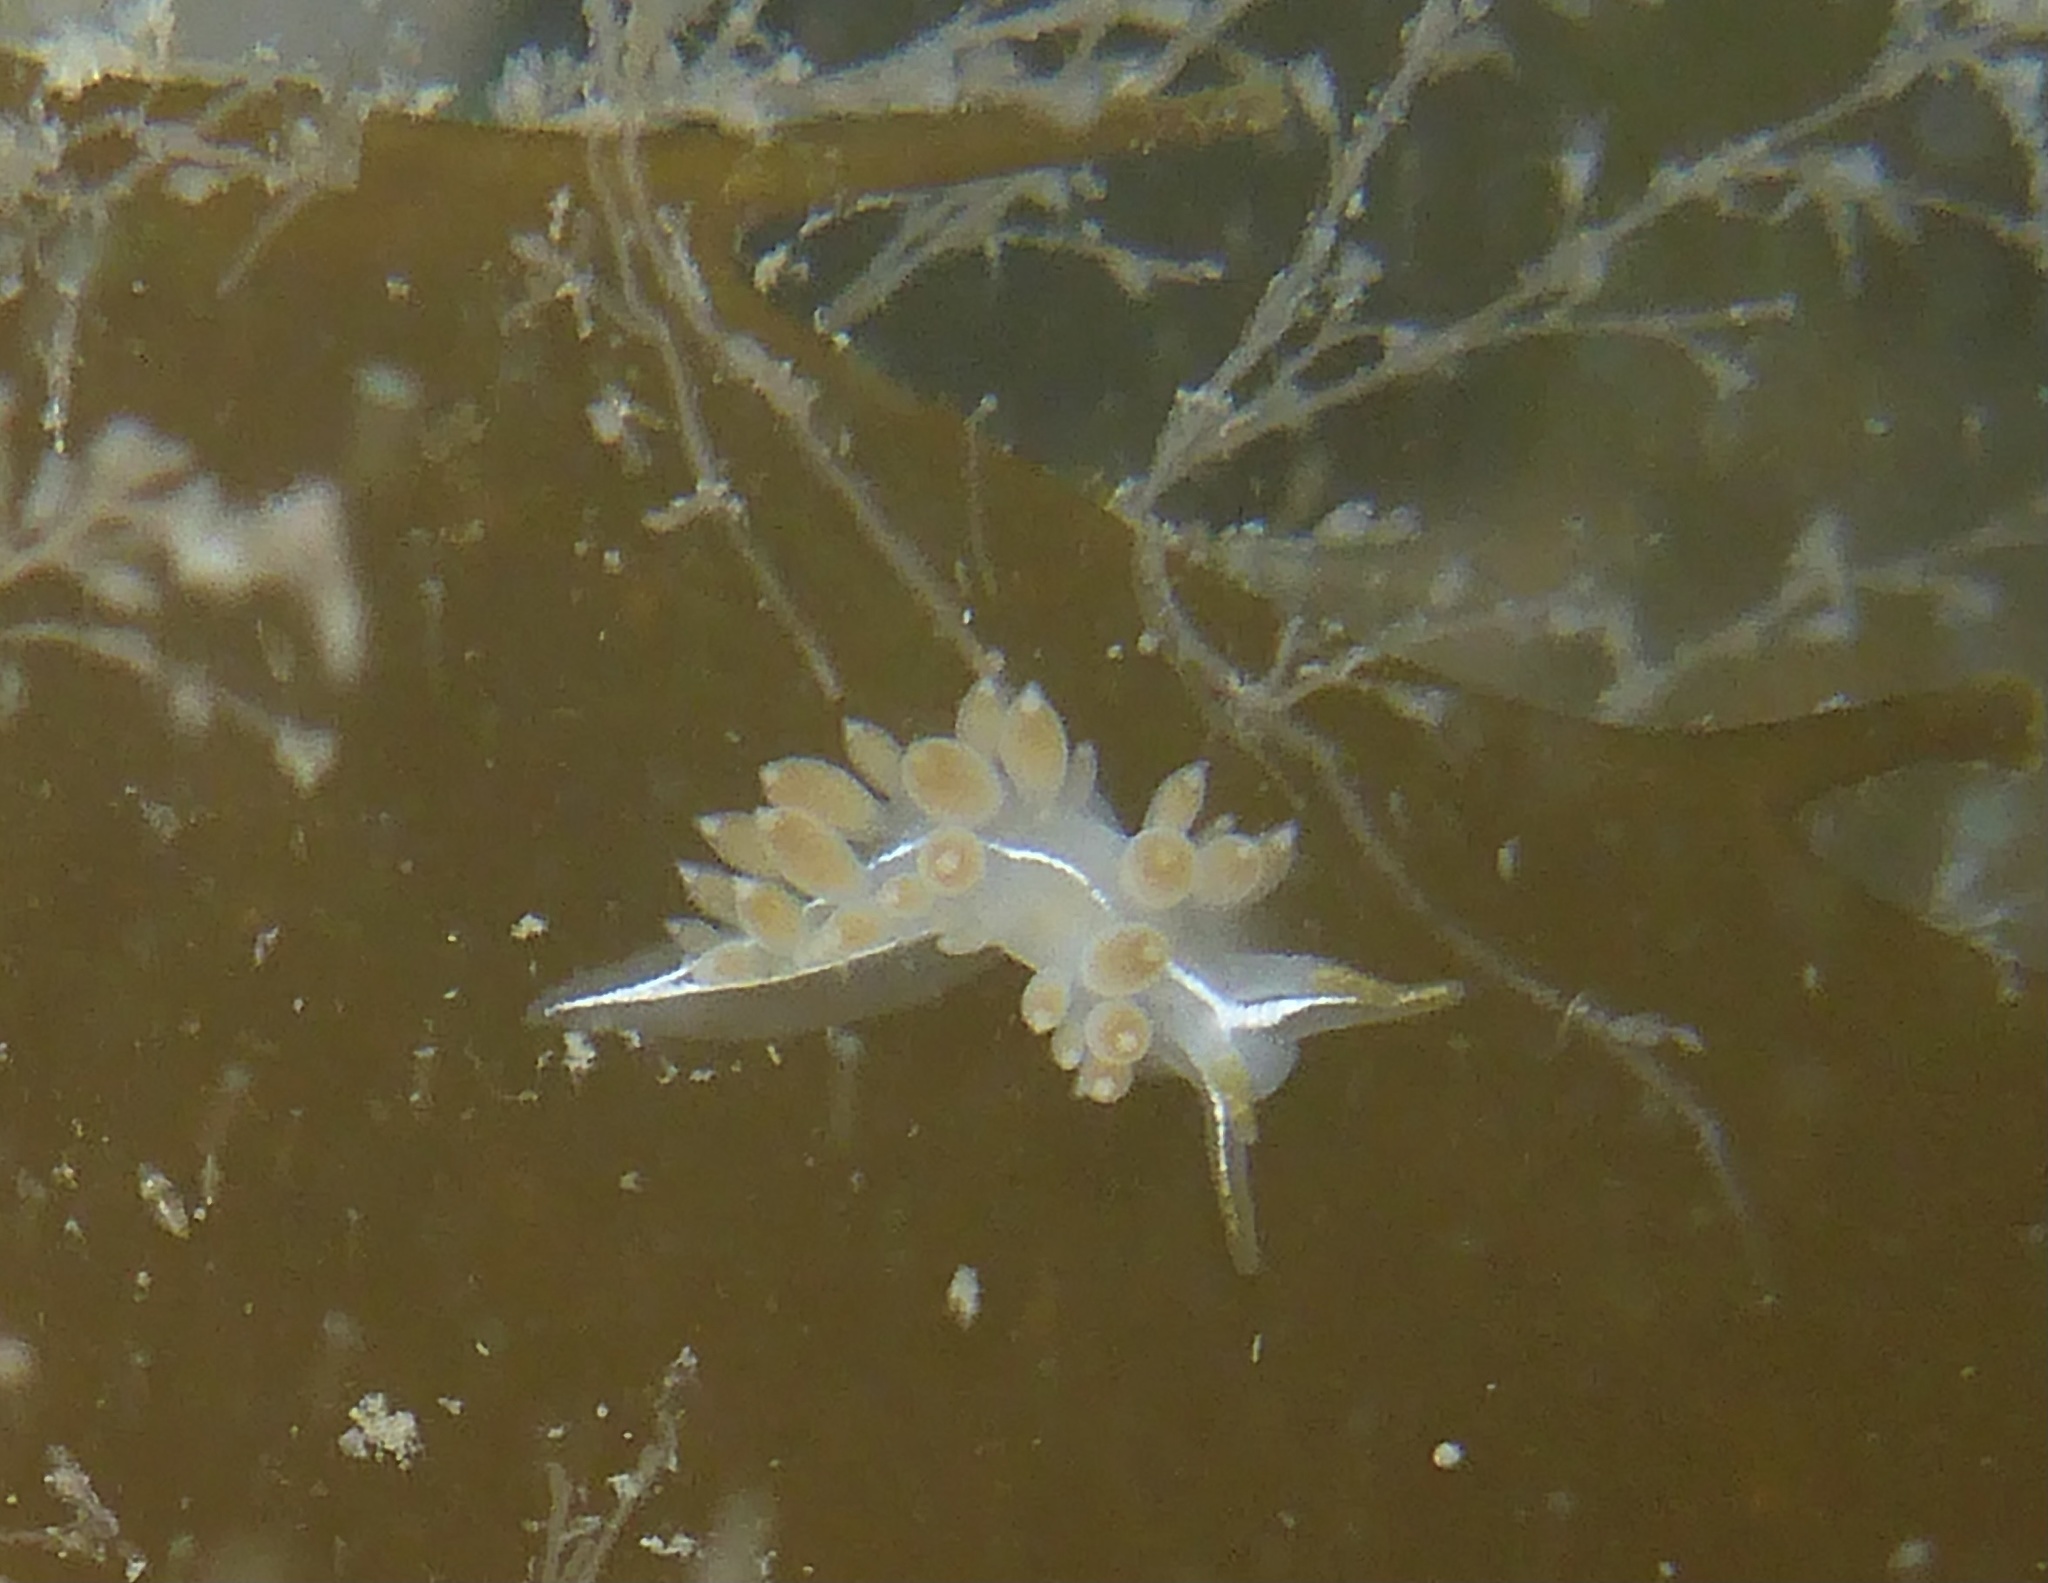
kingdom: Animalia
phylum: Mollusca
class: Gastropoda
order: Nudibranchia
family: Coryphellidae
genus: Coryphella
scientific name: Coryphella trilineata
